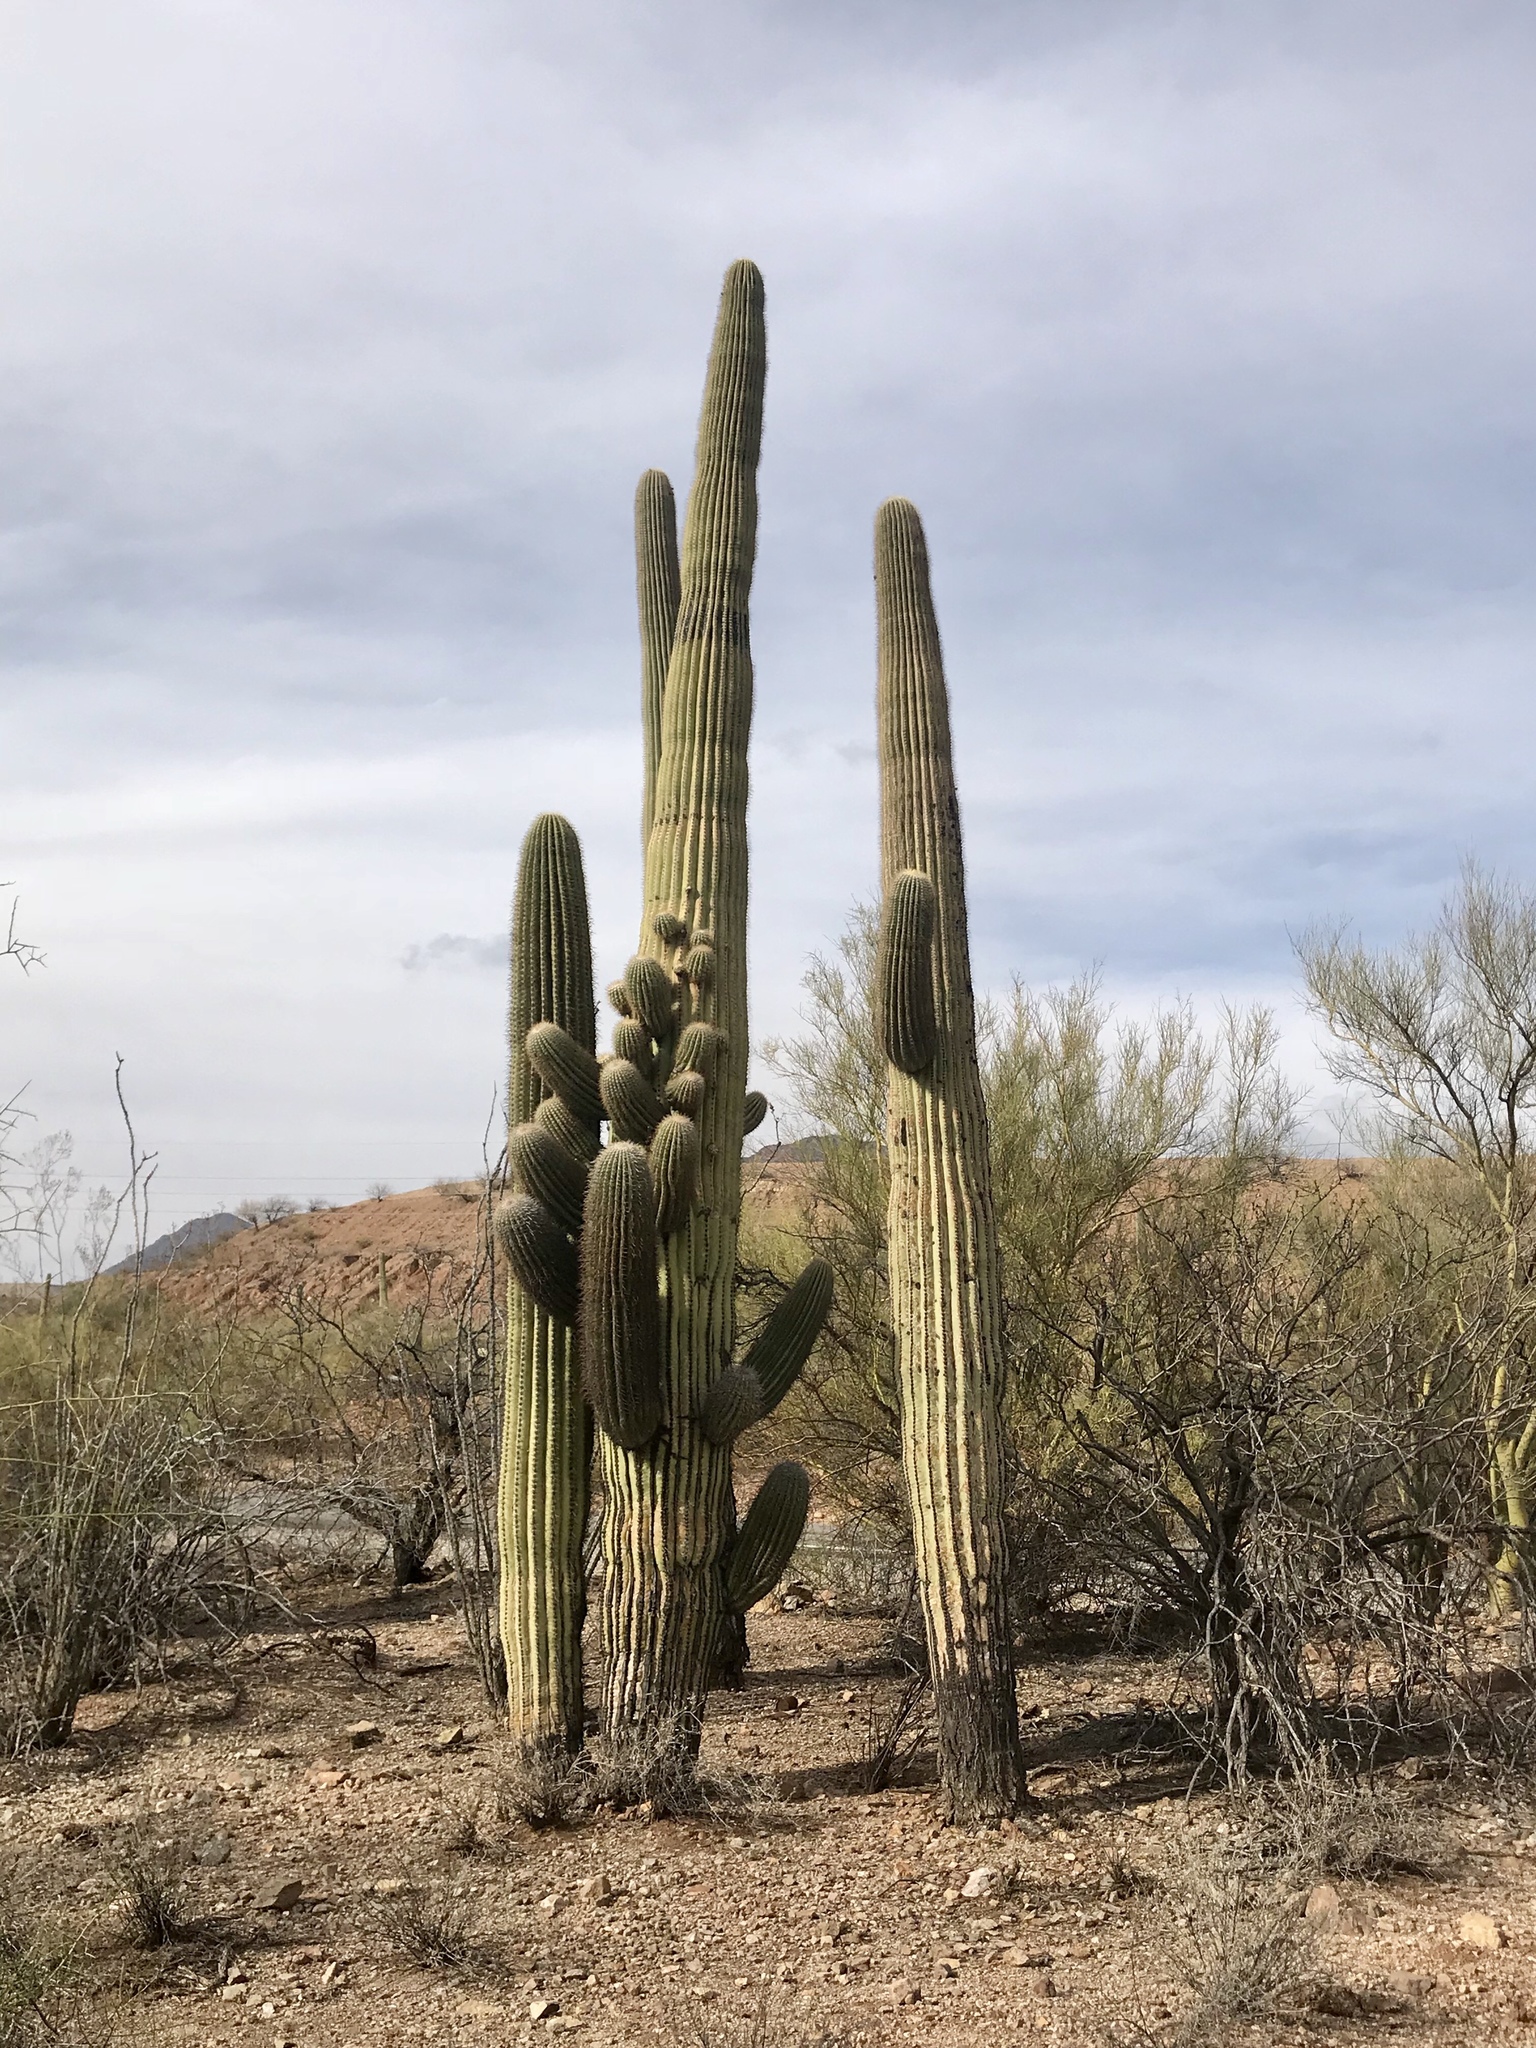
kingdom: Plantae
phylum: Tracheophyta
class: Magnoliopsida
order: Caryophyllales
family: Cactaceae
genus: Carnegiea
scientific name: Carnegiea gigantea
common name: Saguaro
